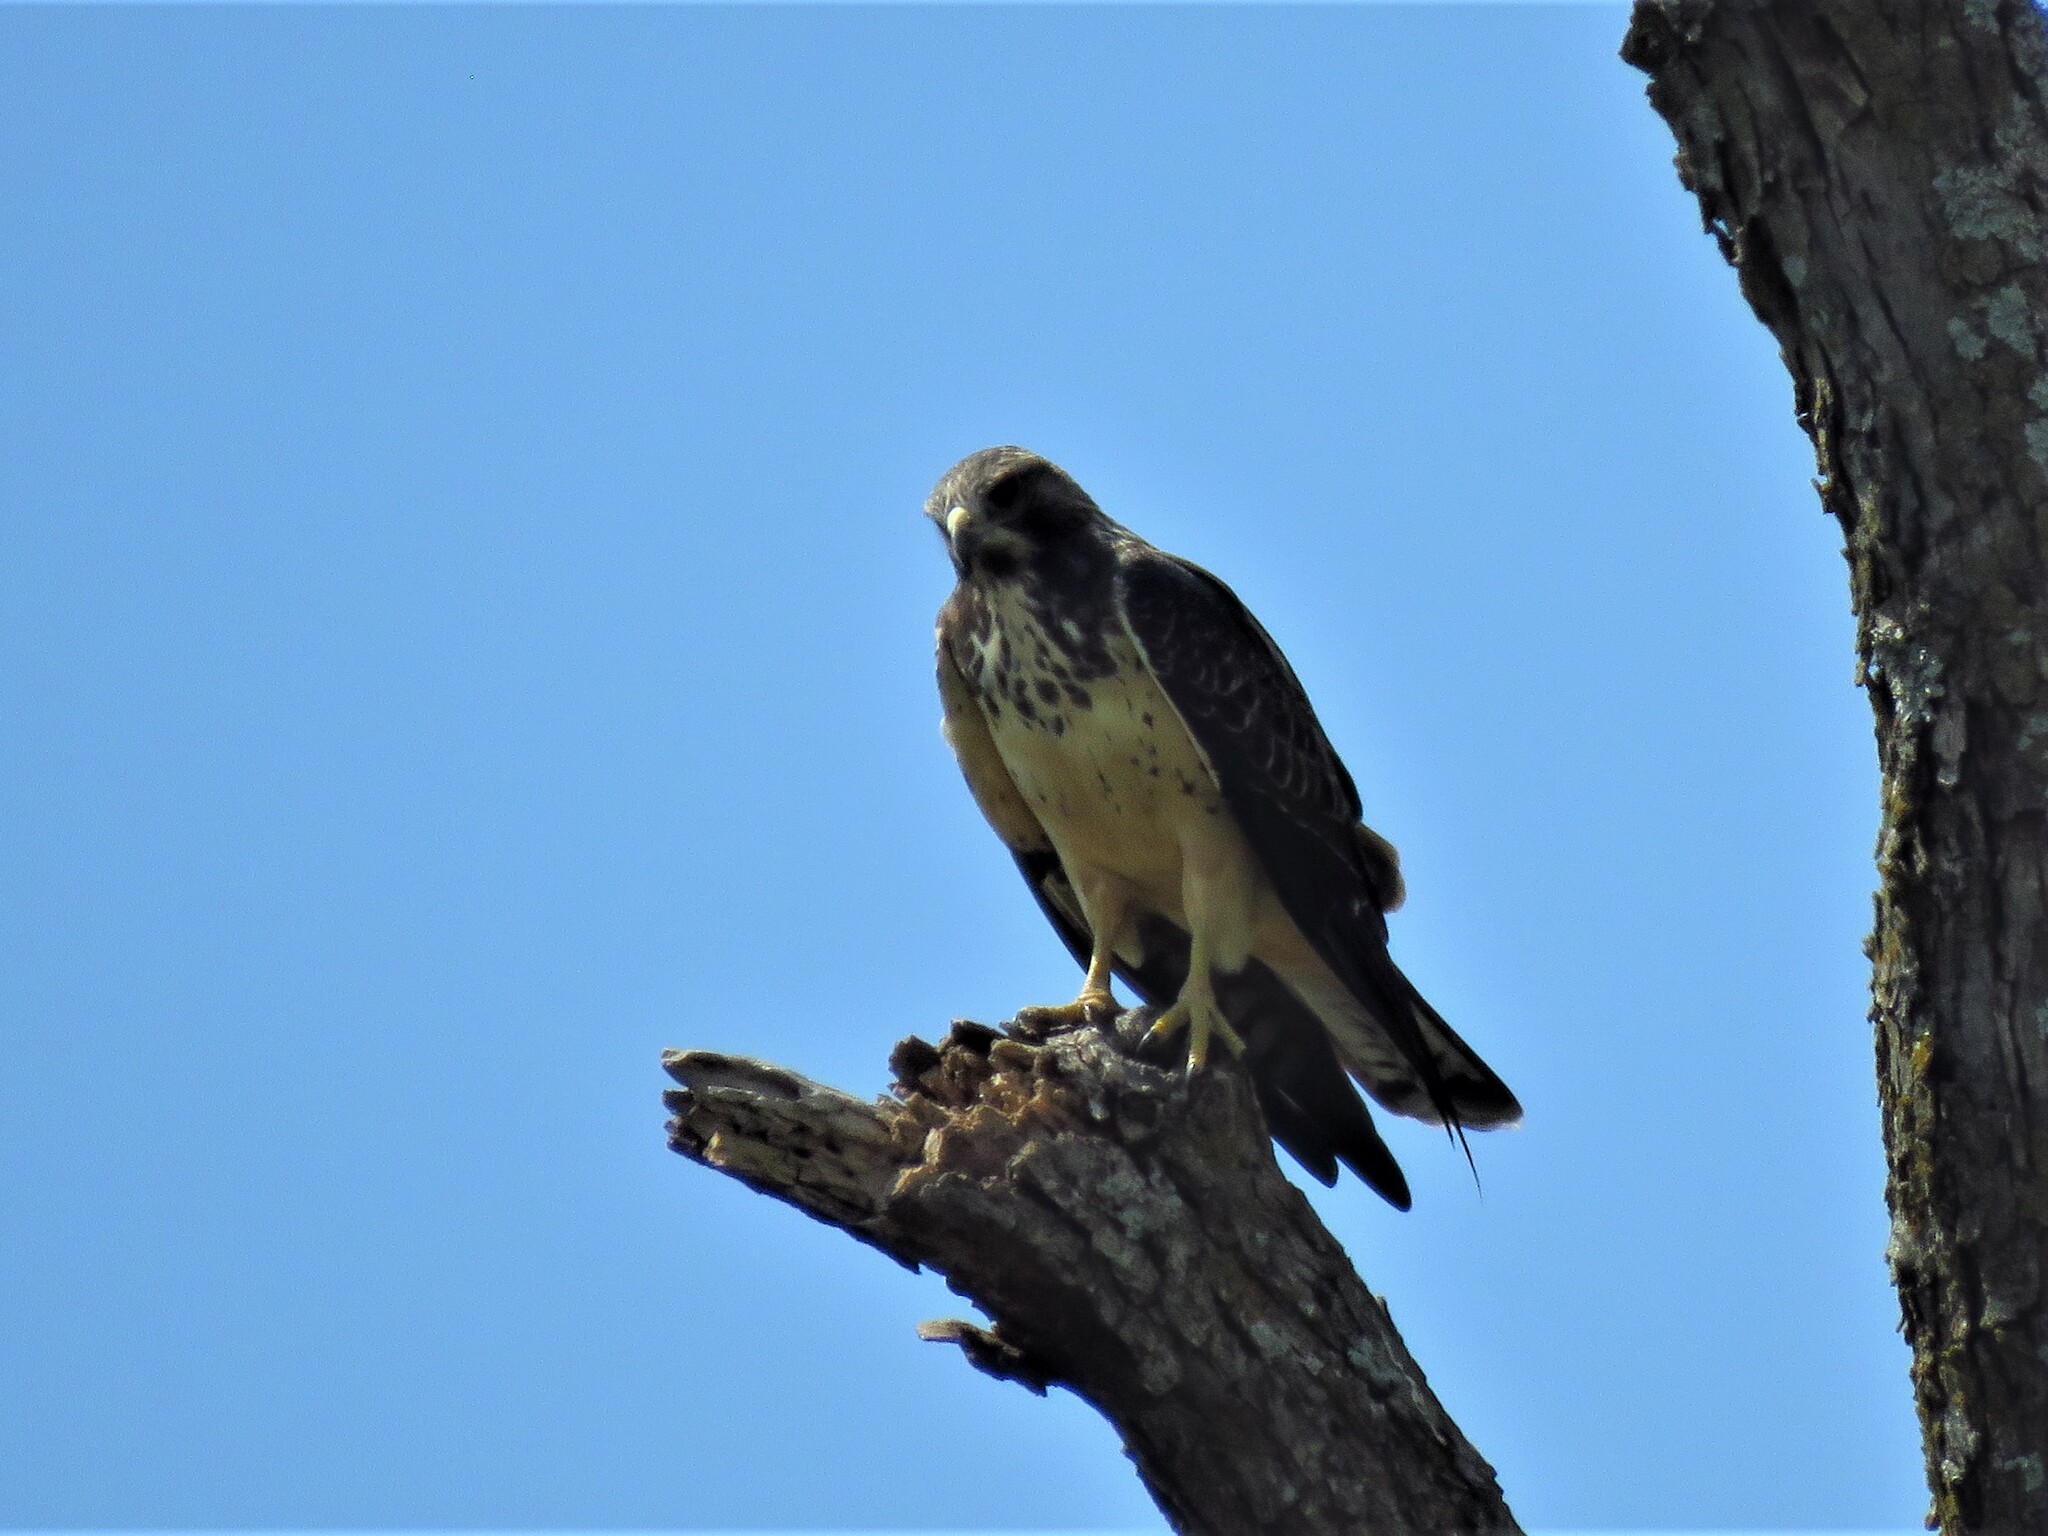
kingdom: Animalia
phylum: Chordata
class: Aves
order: Accipitriformes
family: Accipitridae
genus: Buteo
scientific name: Buteo swainsoni
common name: Swainson's hawk
